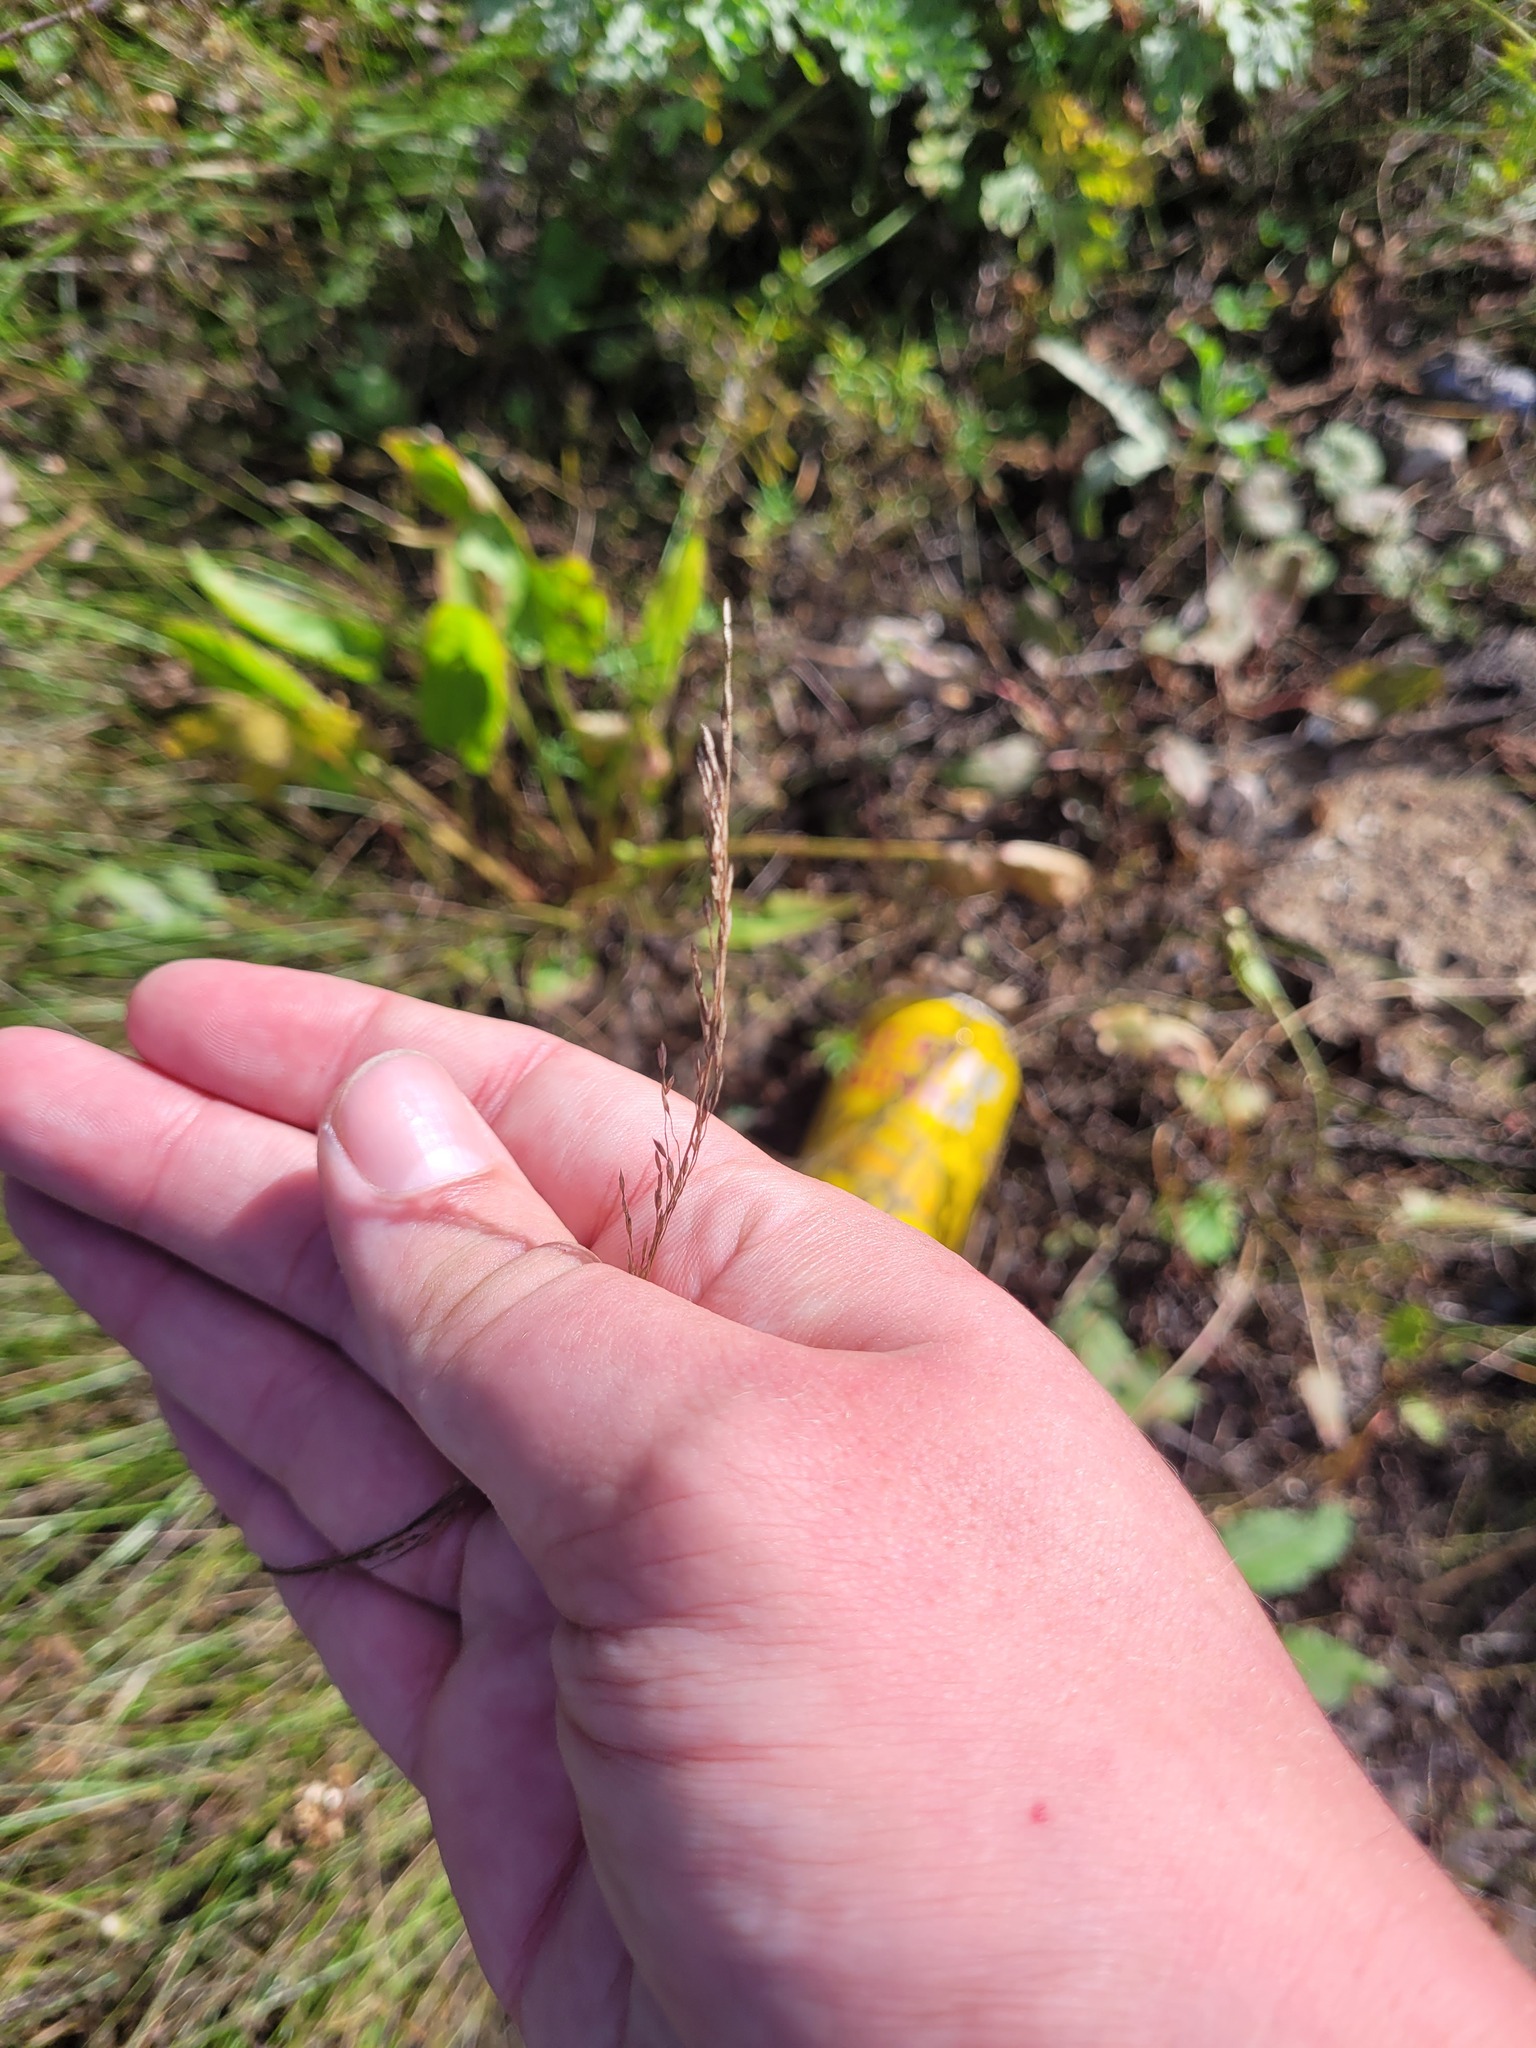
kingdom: Plantae
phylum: Tracheophyta
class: Liliopsida
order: Poales
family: Poaceae
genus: Poa
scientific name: Poa angustifolia
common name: Narrow-leaved meadow-grass
